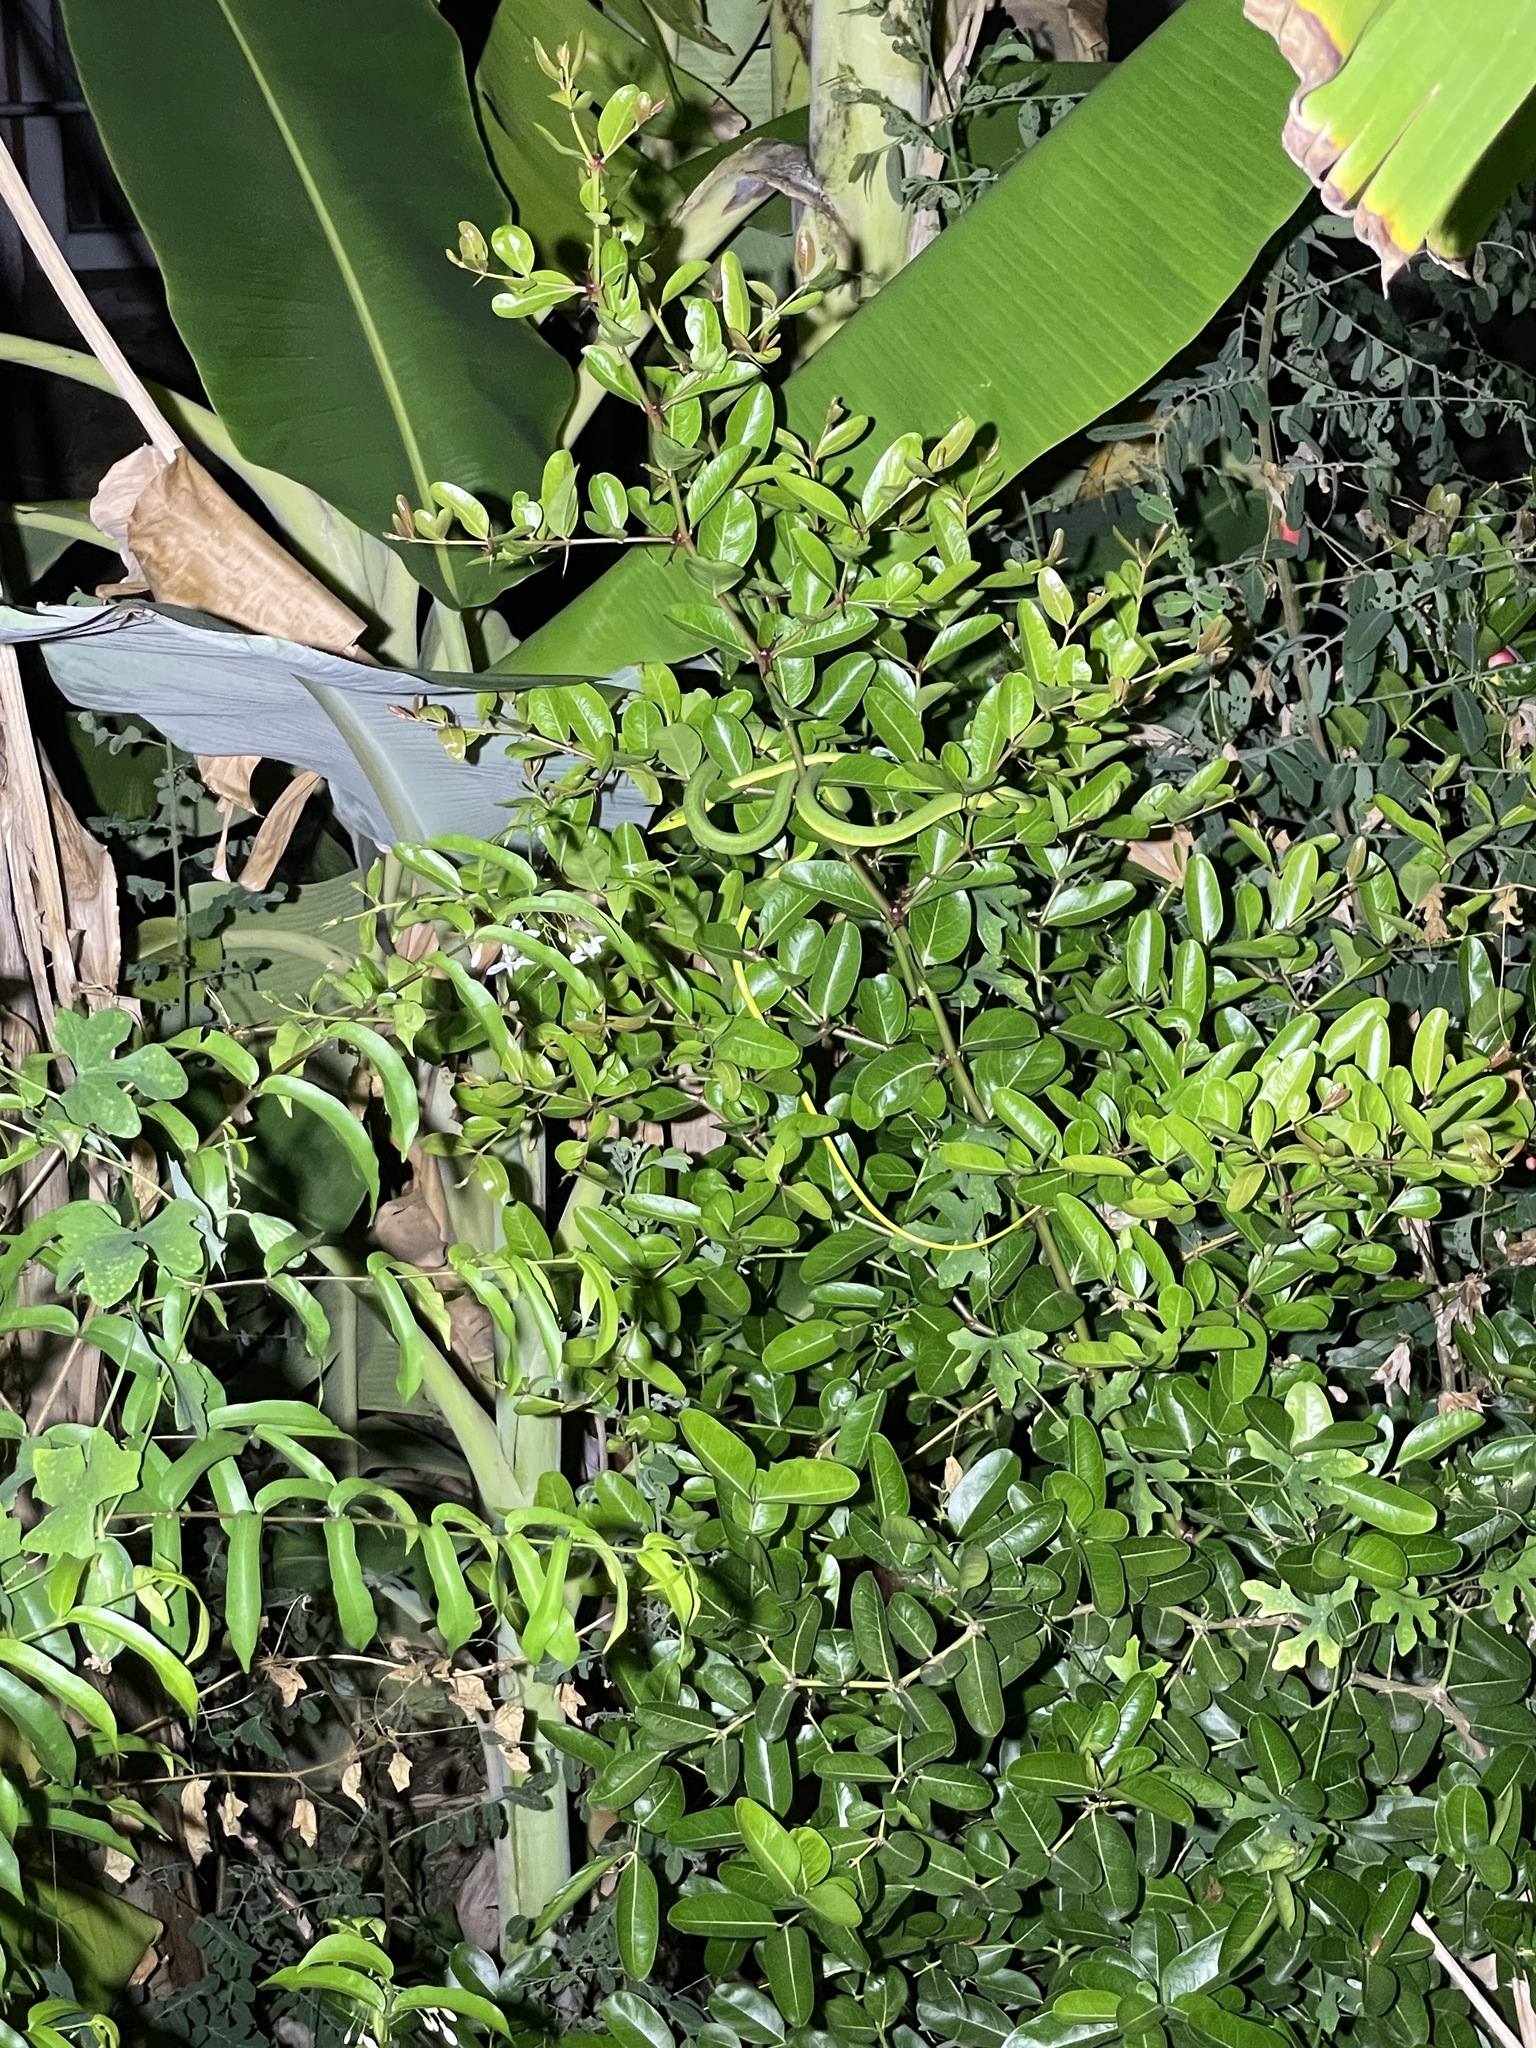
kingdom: Animalia
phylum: Chordata
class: Squamata
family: Colubridae
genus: Ahaetulla
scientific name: Ahaetulla
